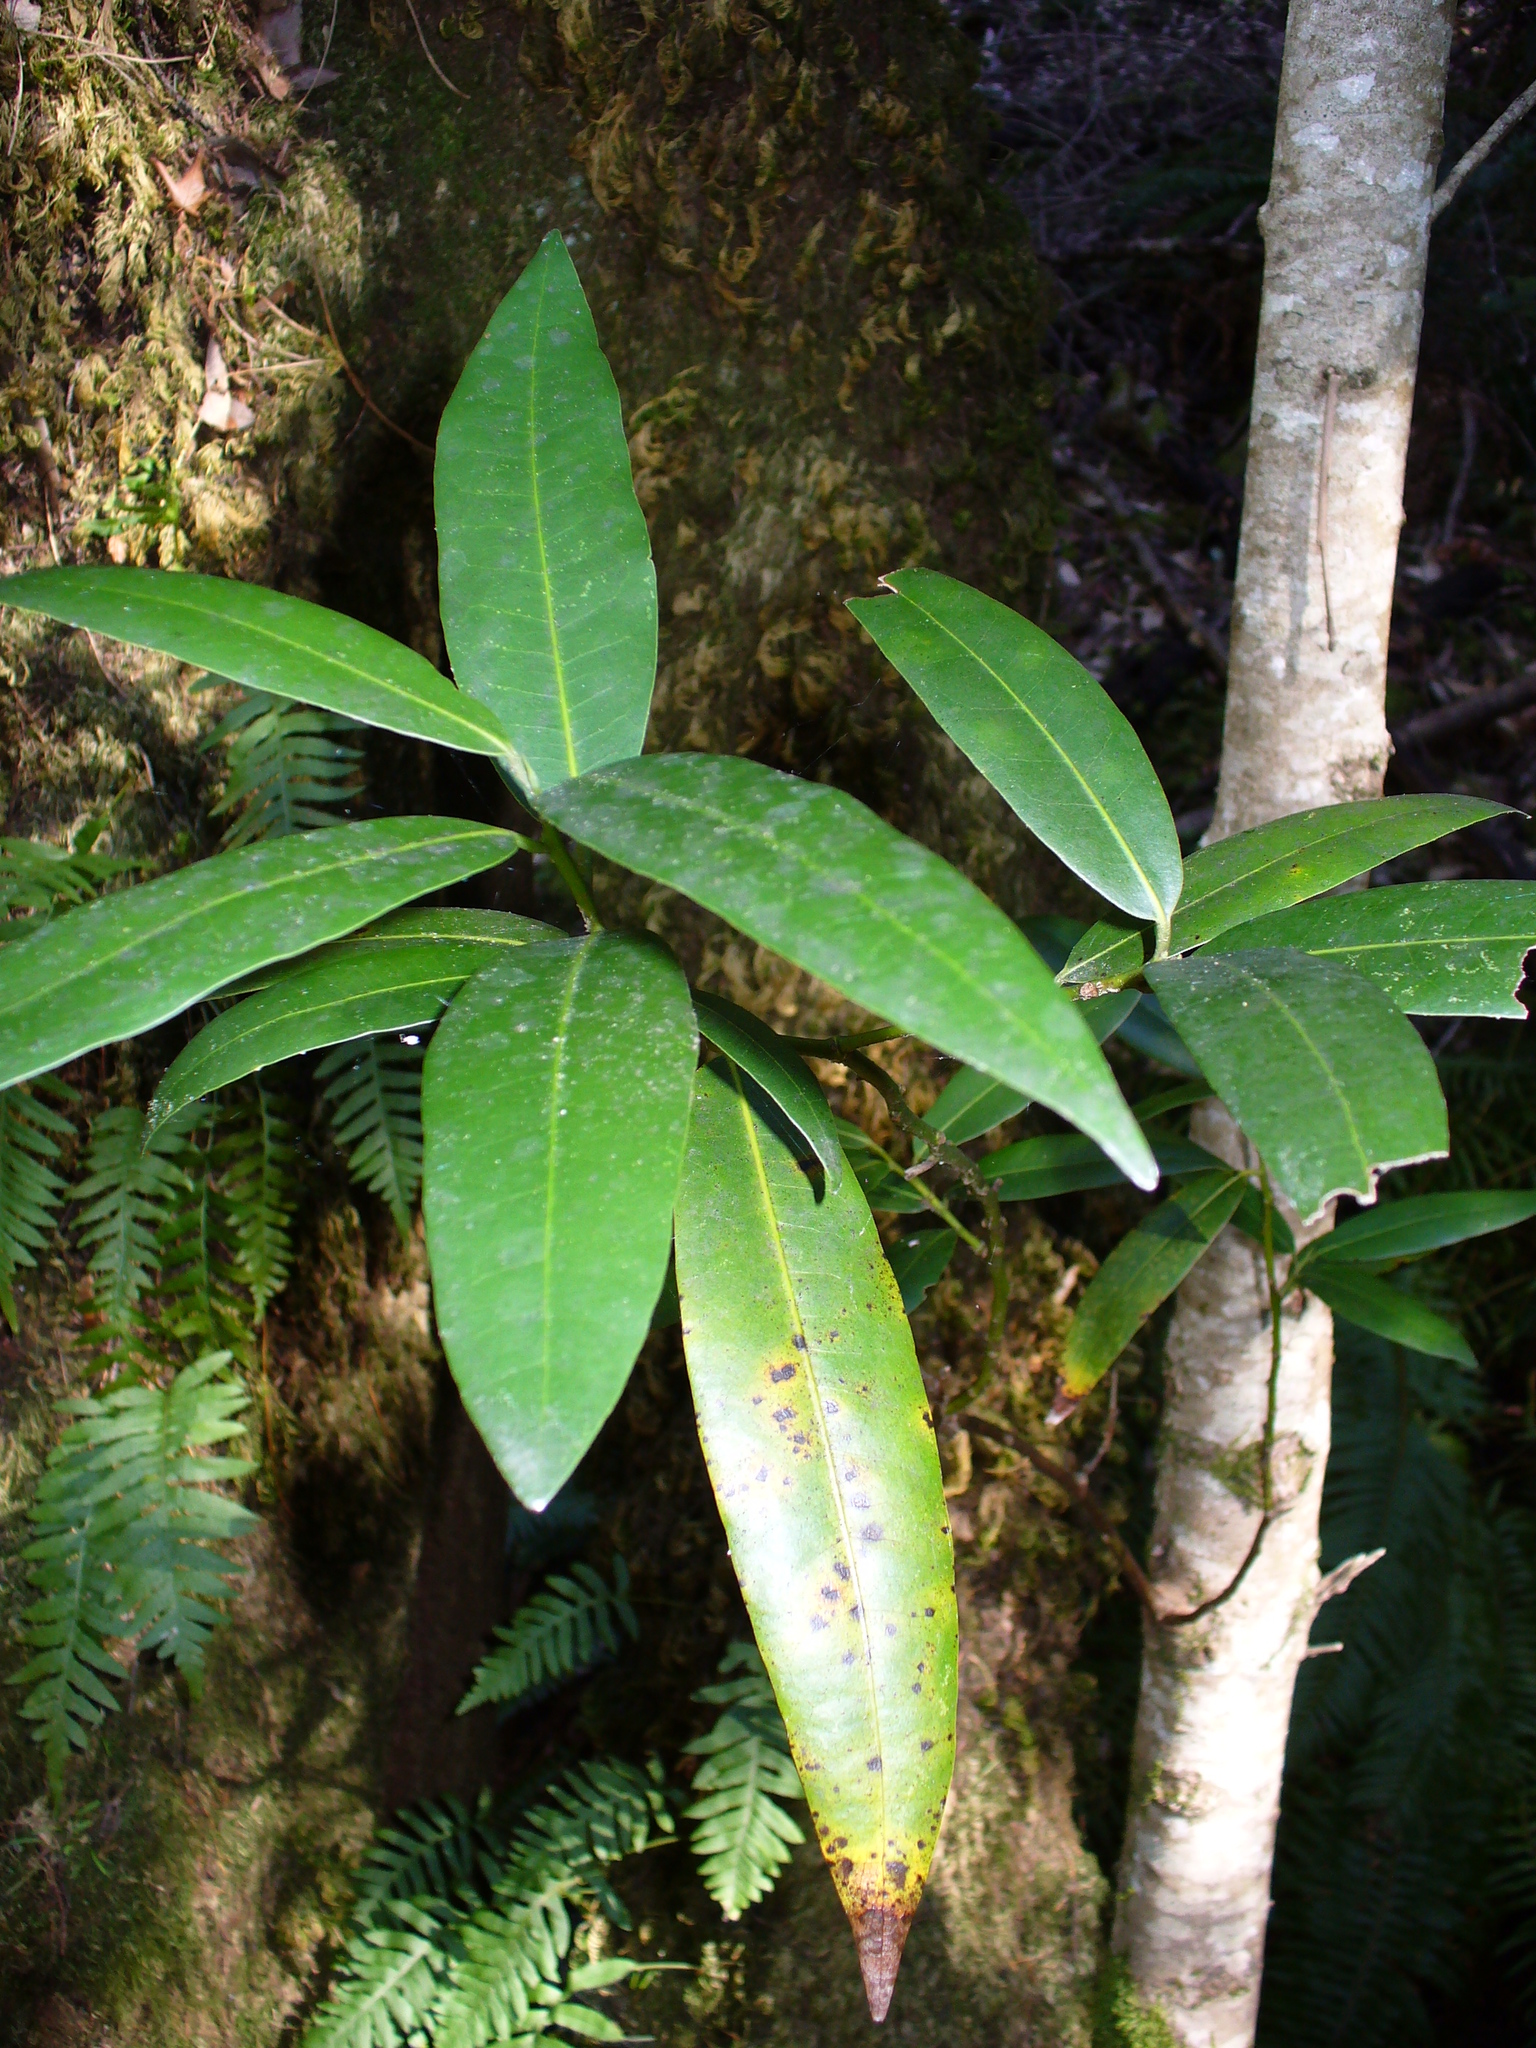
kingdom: Plantae
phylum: Tracheophyta
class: Magnoliopsida
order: Laurales
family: Lauraceae
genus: Umbellularia
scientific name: Umbellularia californica
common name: California bay
